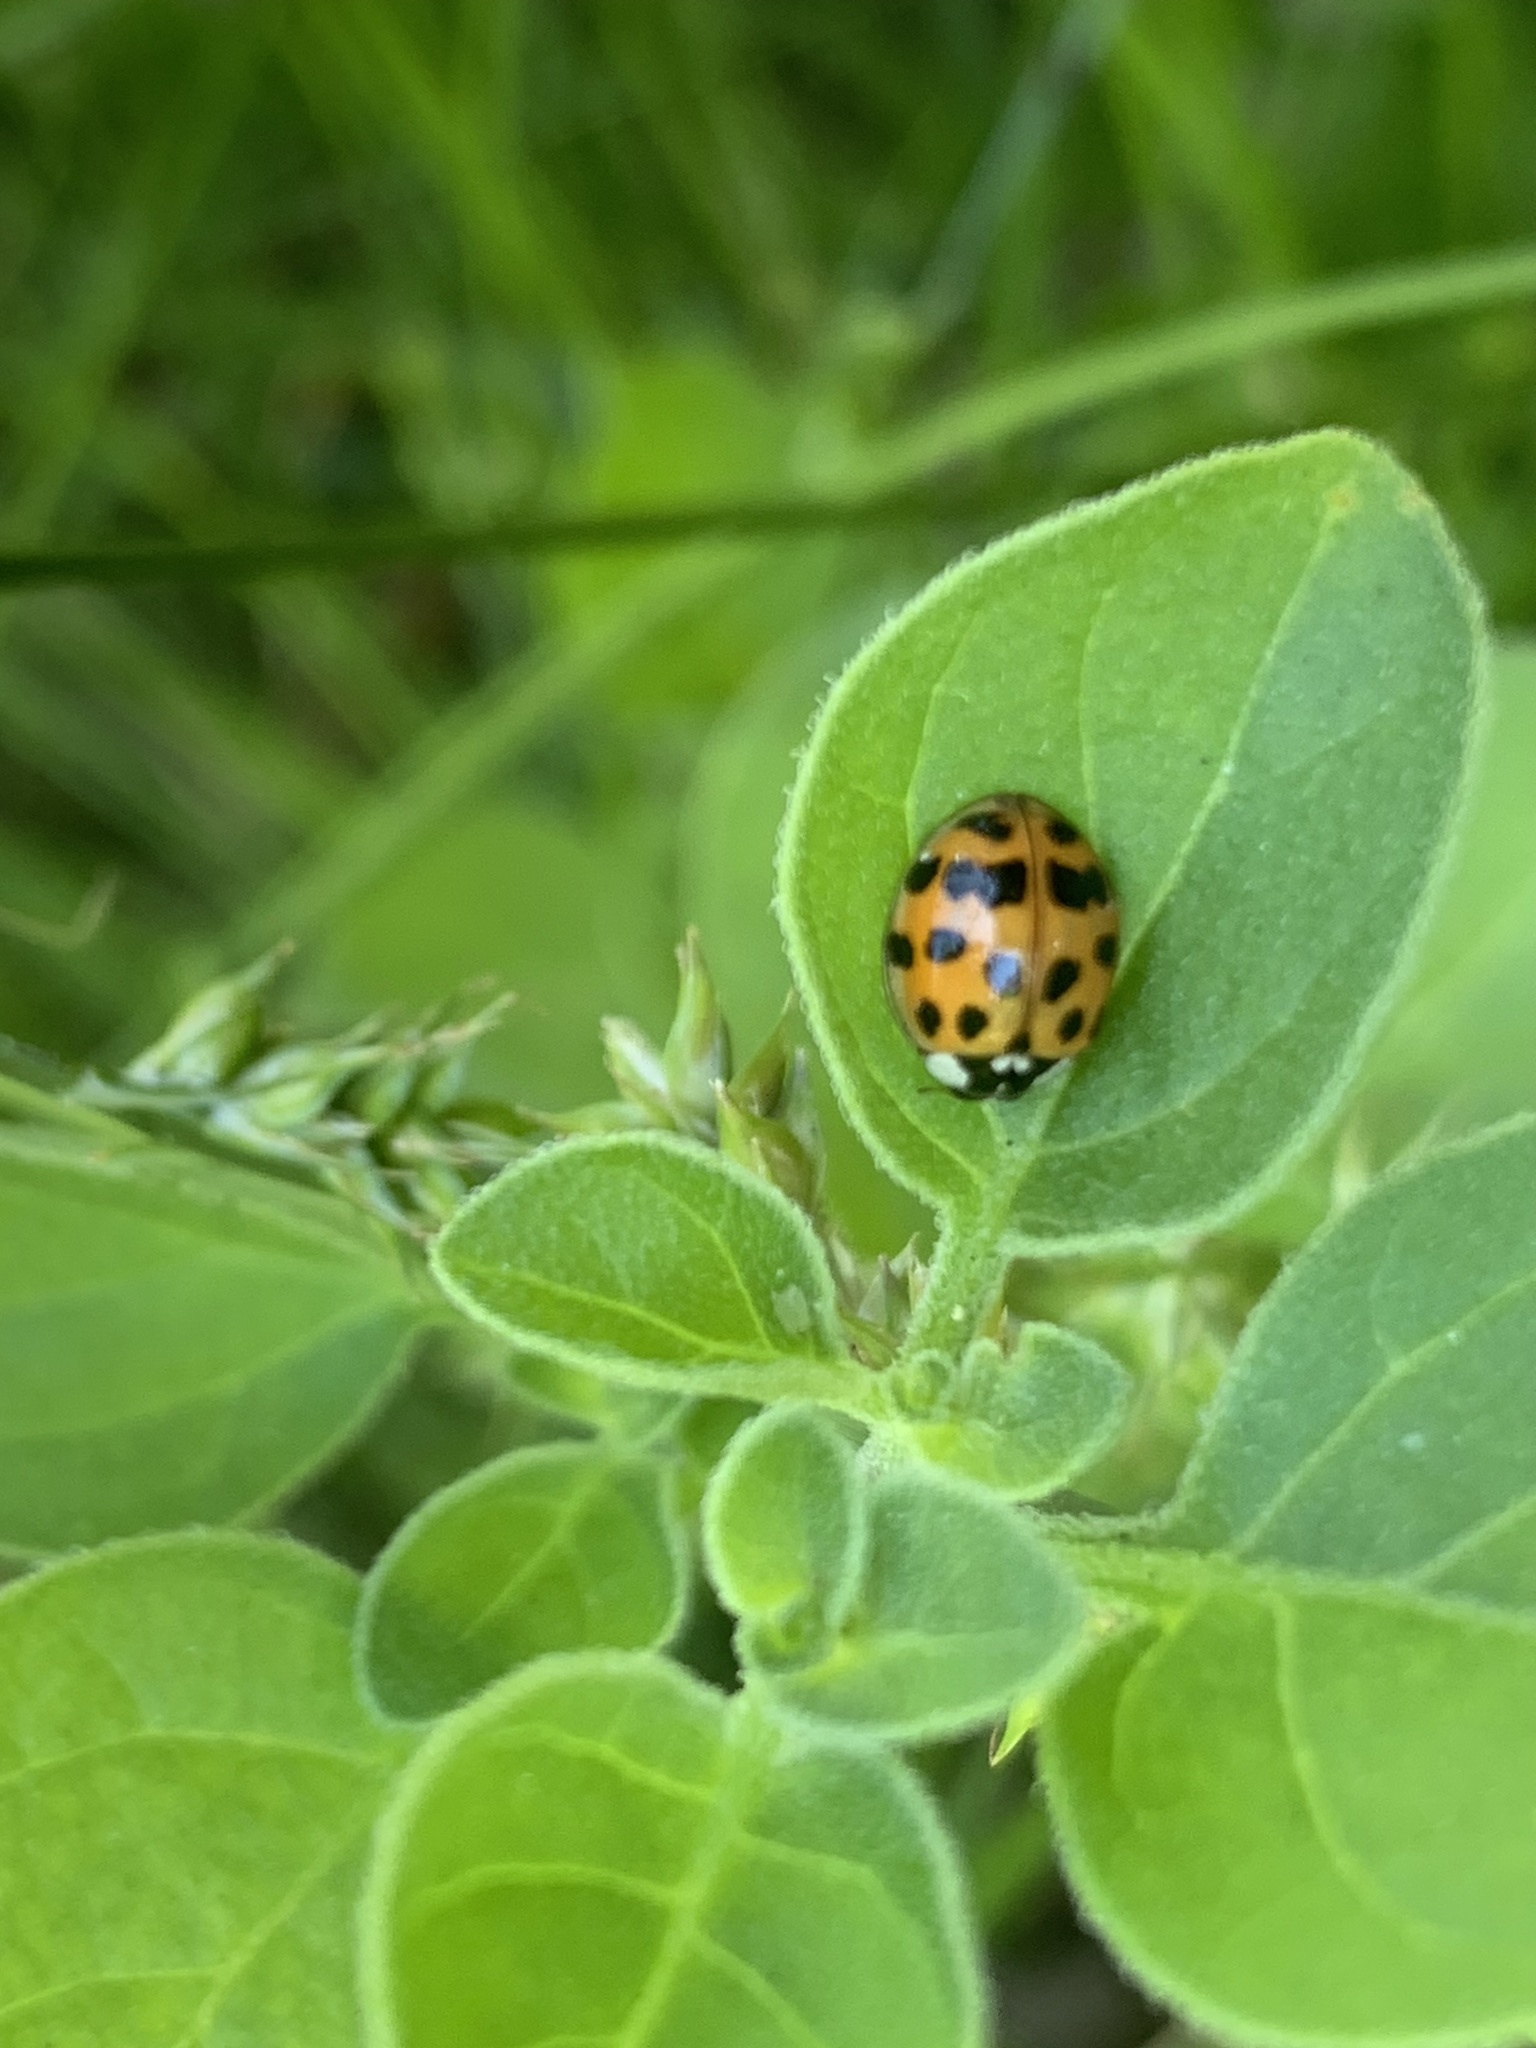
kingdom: Animalia
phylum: Arthropoda
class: Insecta
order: Coleoptera
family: Coccinellidae
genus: Harmonia
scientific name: Harmonia axyridis
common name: Harlequin ladybird
